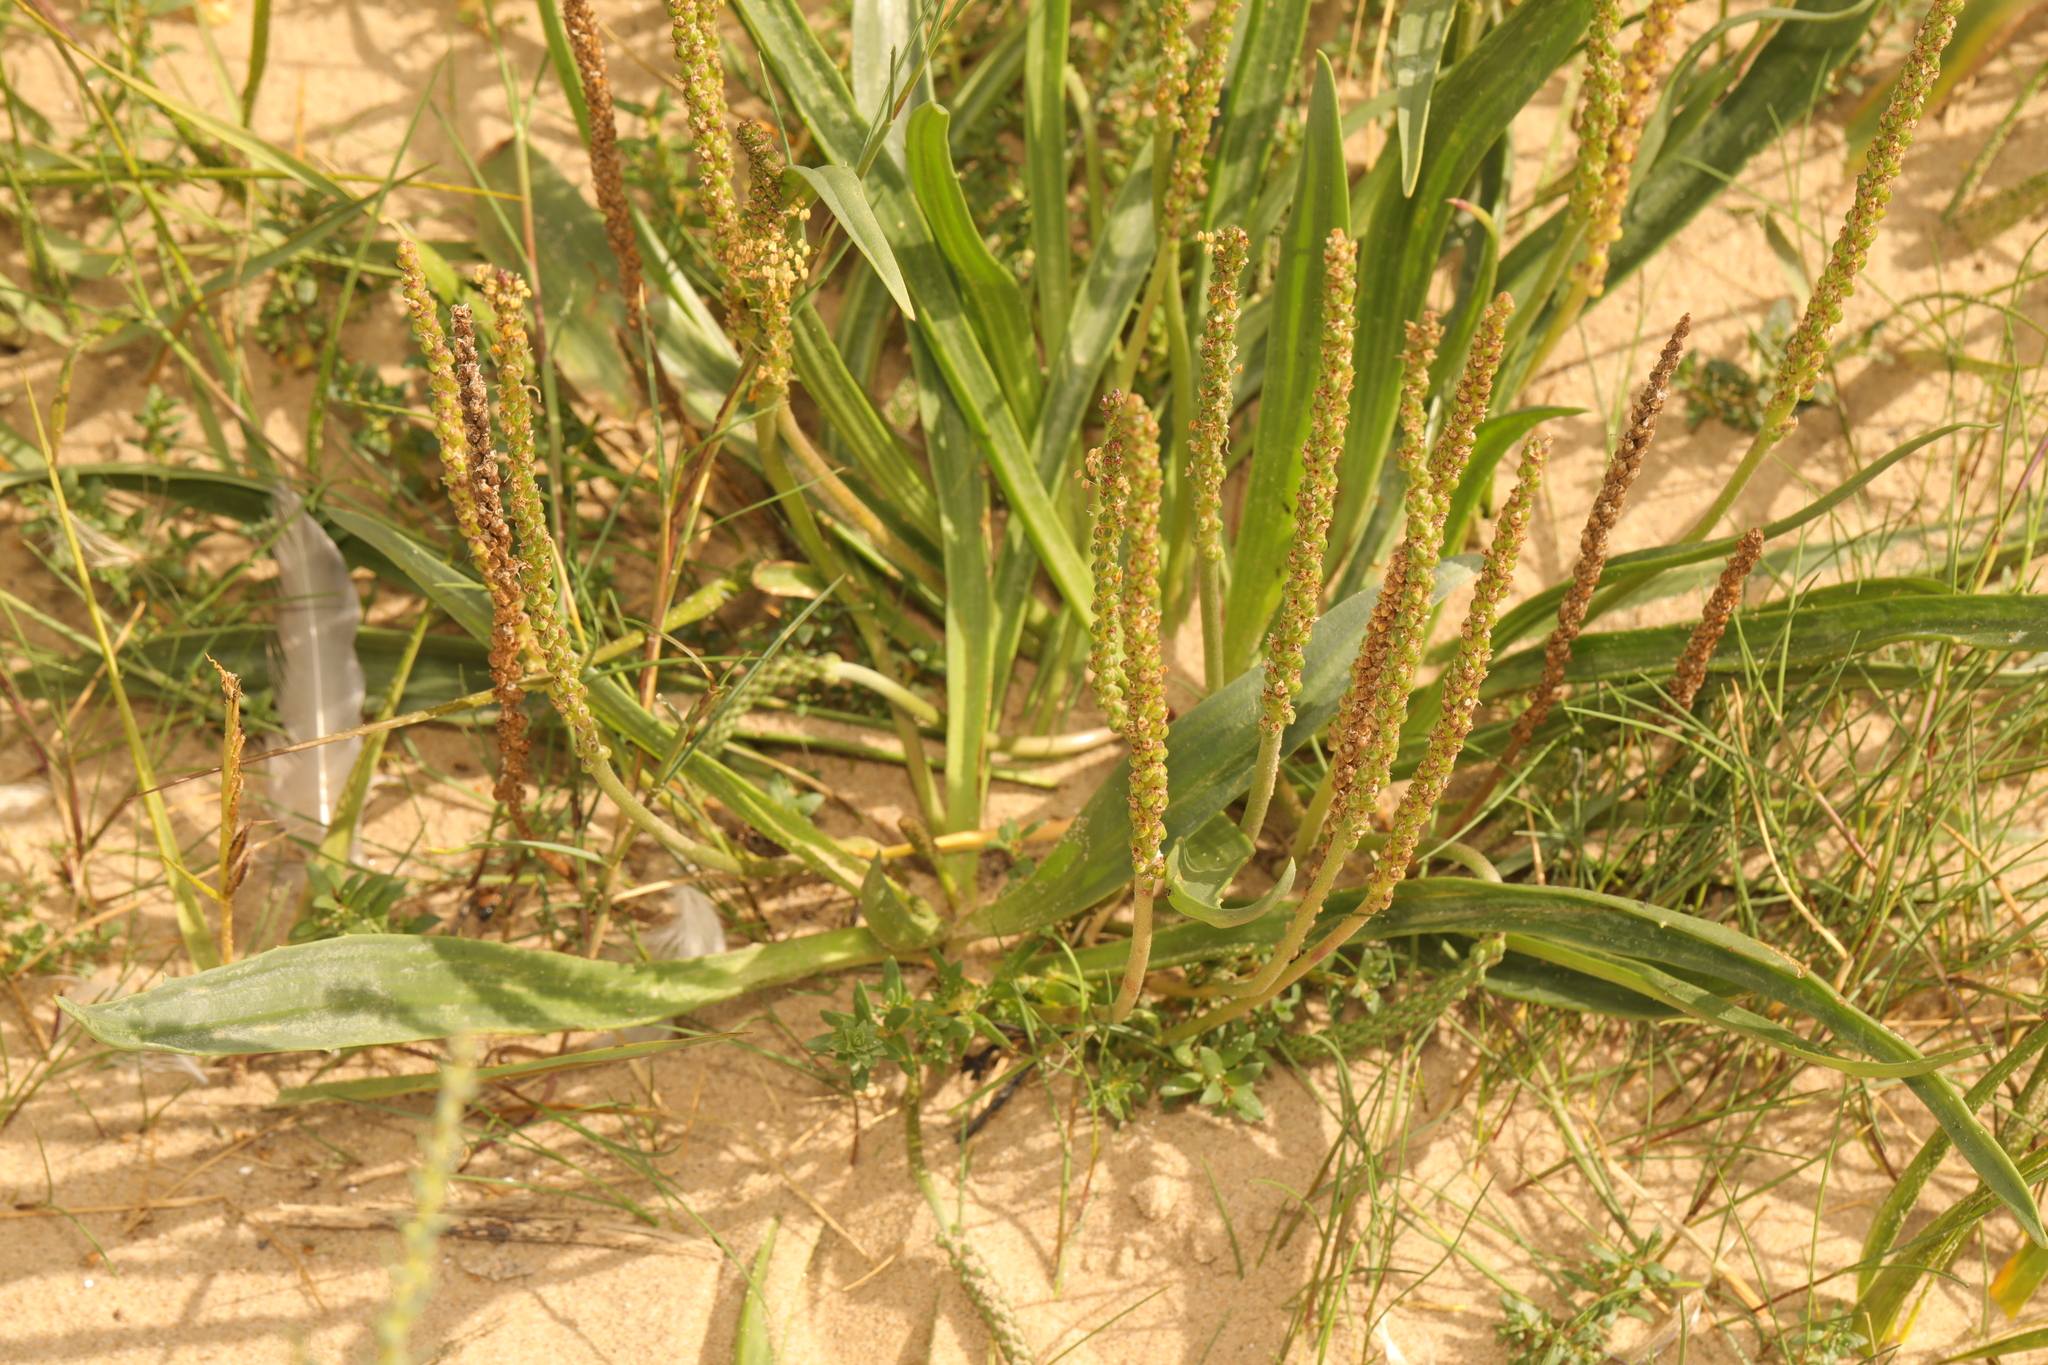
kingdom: Plantae
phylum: Tracheophyta
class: Magnoliopsida
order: Lamiales
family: Plantaginaceae
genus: Plantago
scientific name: Plantago maritima
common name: Sea plantain
